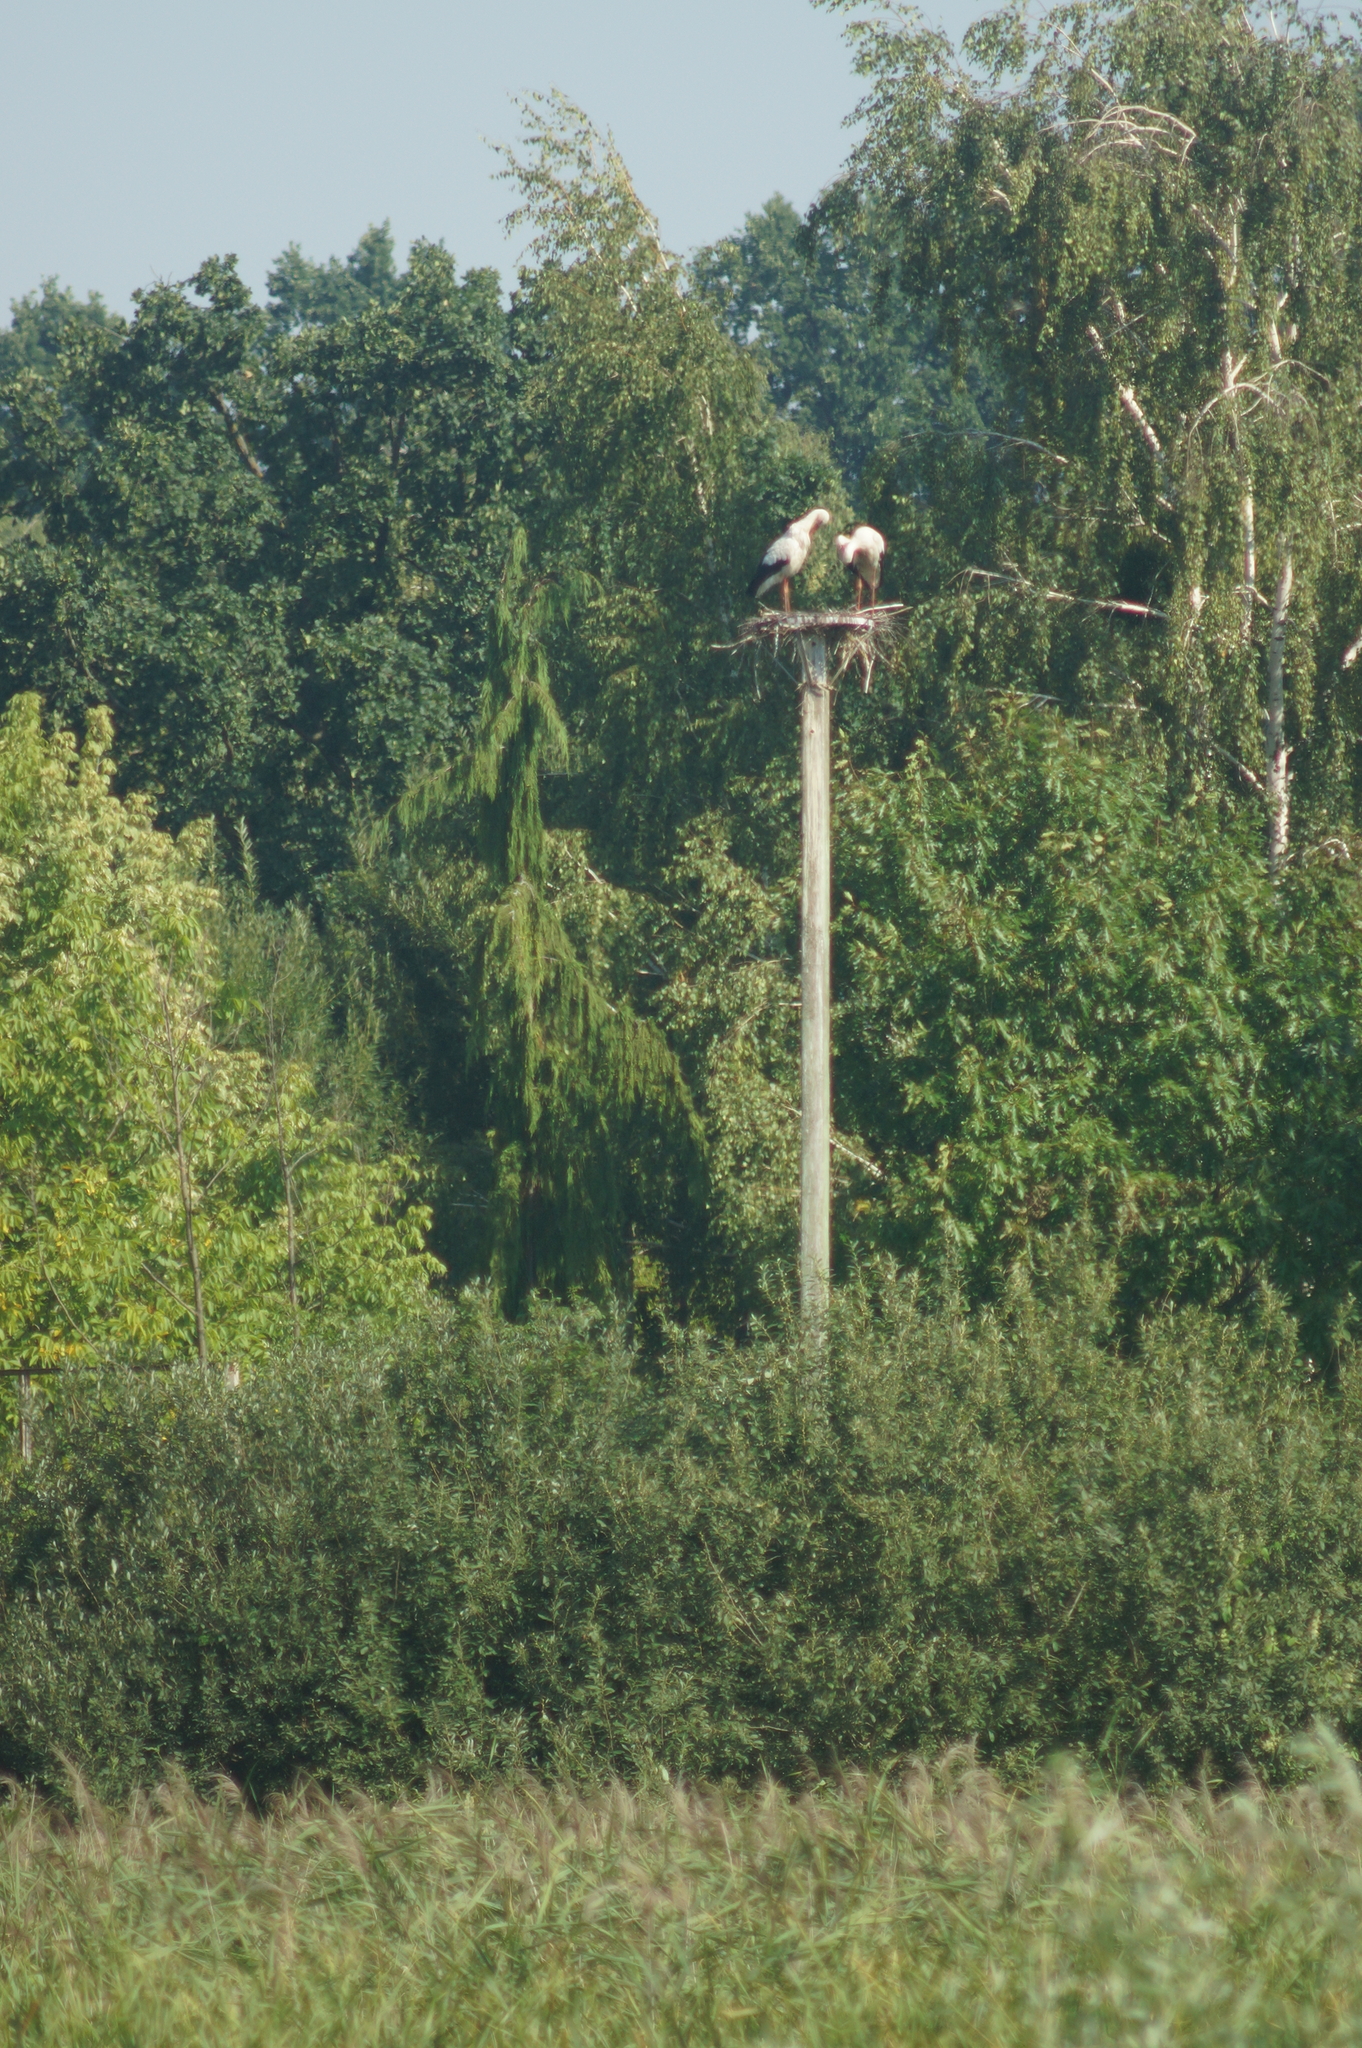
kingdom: Animalia
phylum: Chordata
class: Aves
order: Ciconiiformes
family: Ciconiidae
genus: Ciconia
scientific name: Ciconia ciconia
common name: White stork
